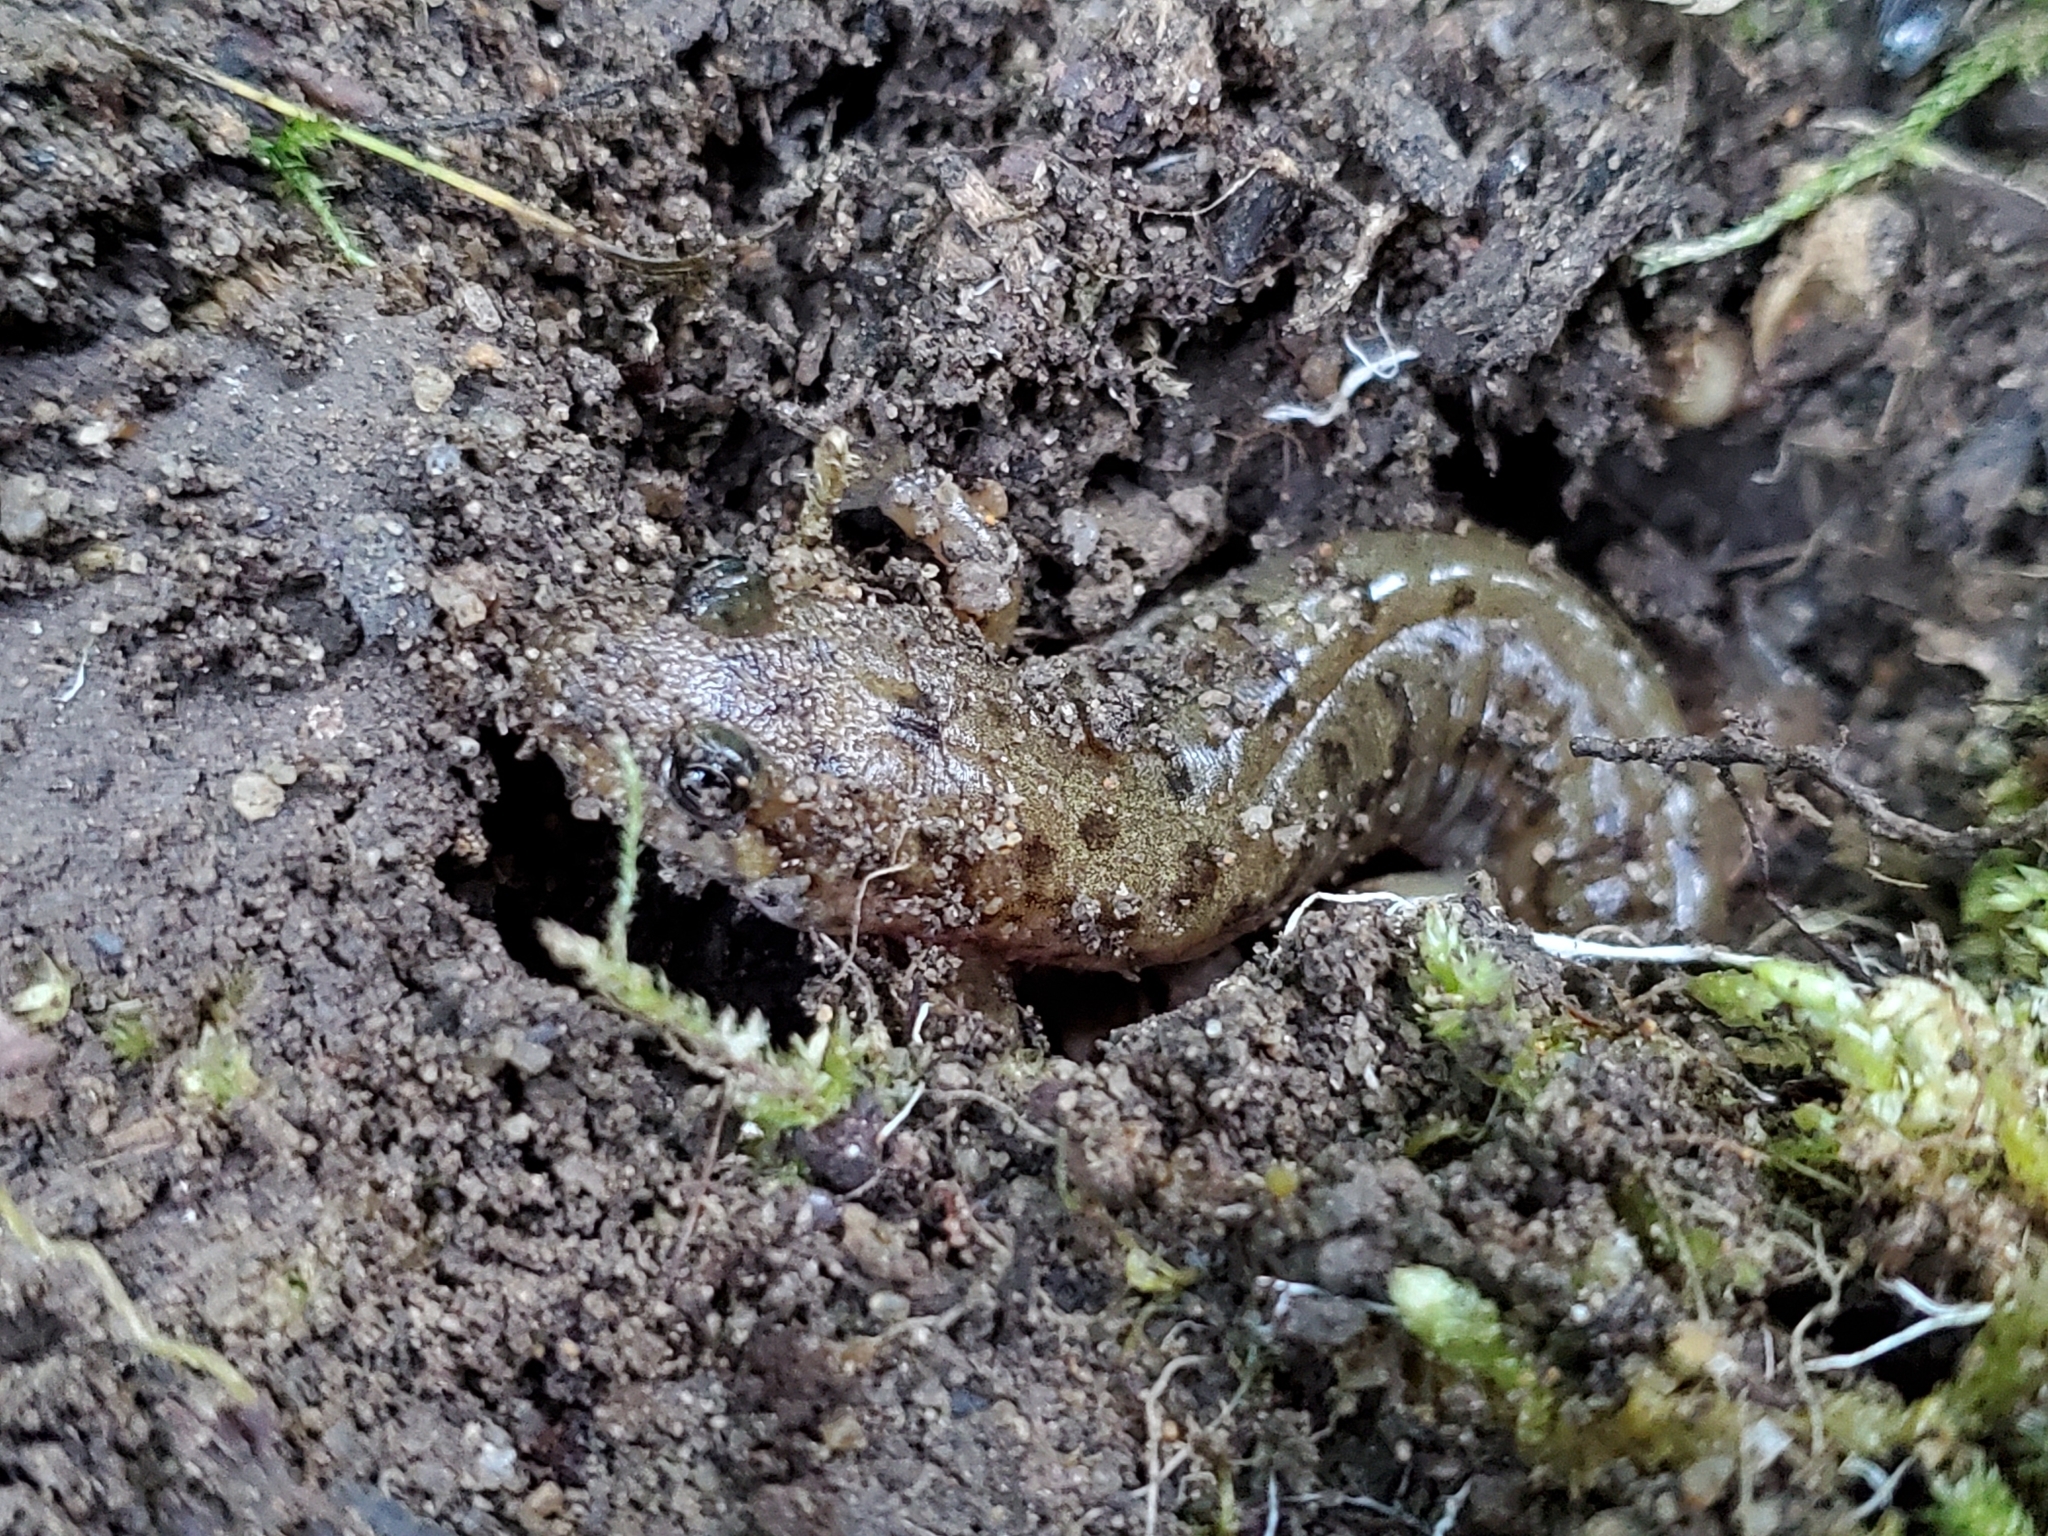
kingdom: Animalia
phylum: Chordata
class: Amphibia
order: Caudata
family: Plethodontidae
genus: Desmognathus
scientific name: Desmognathus monticola
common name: Seal salamander
